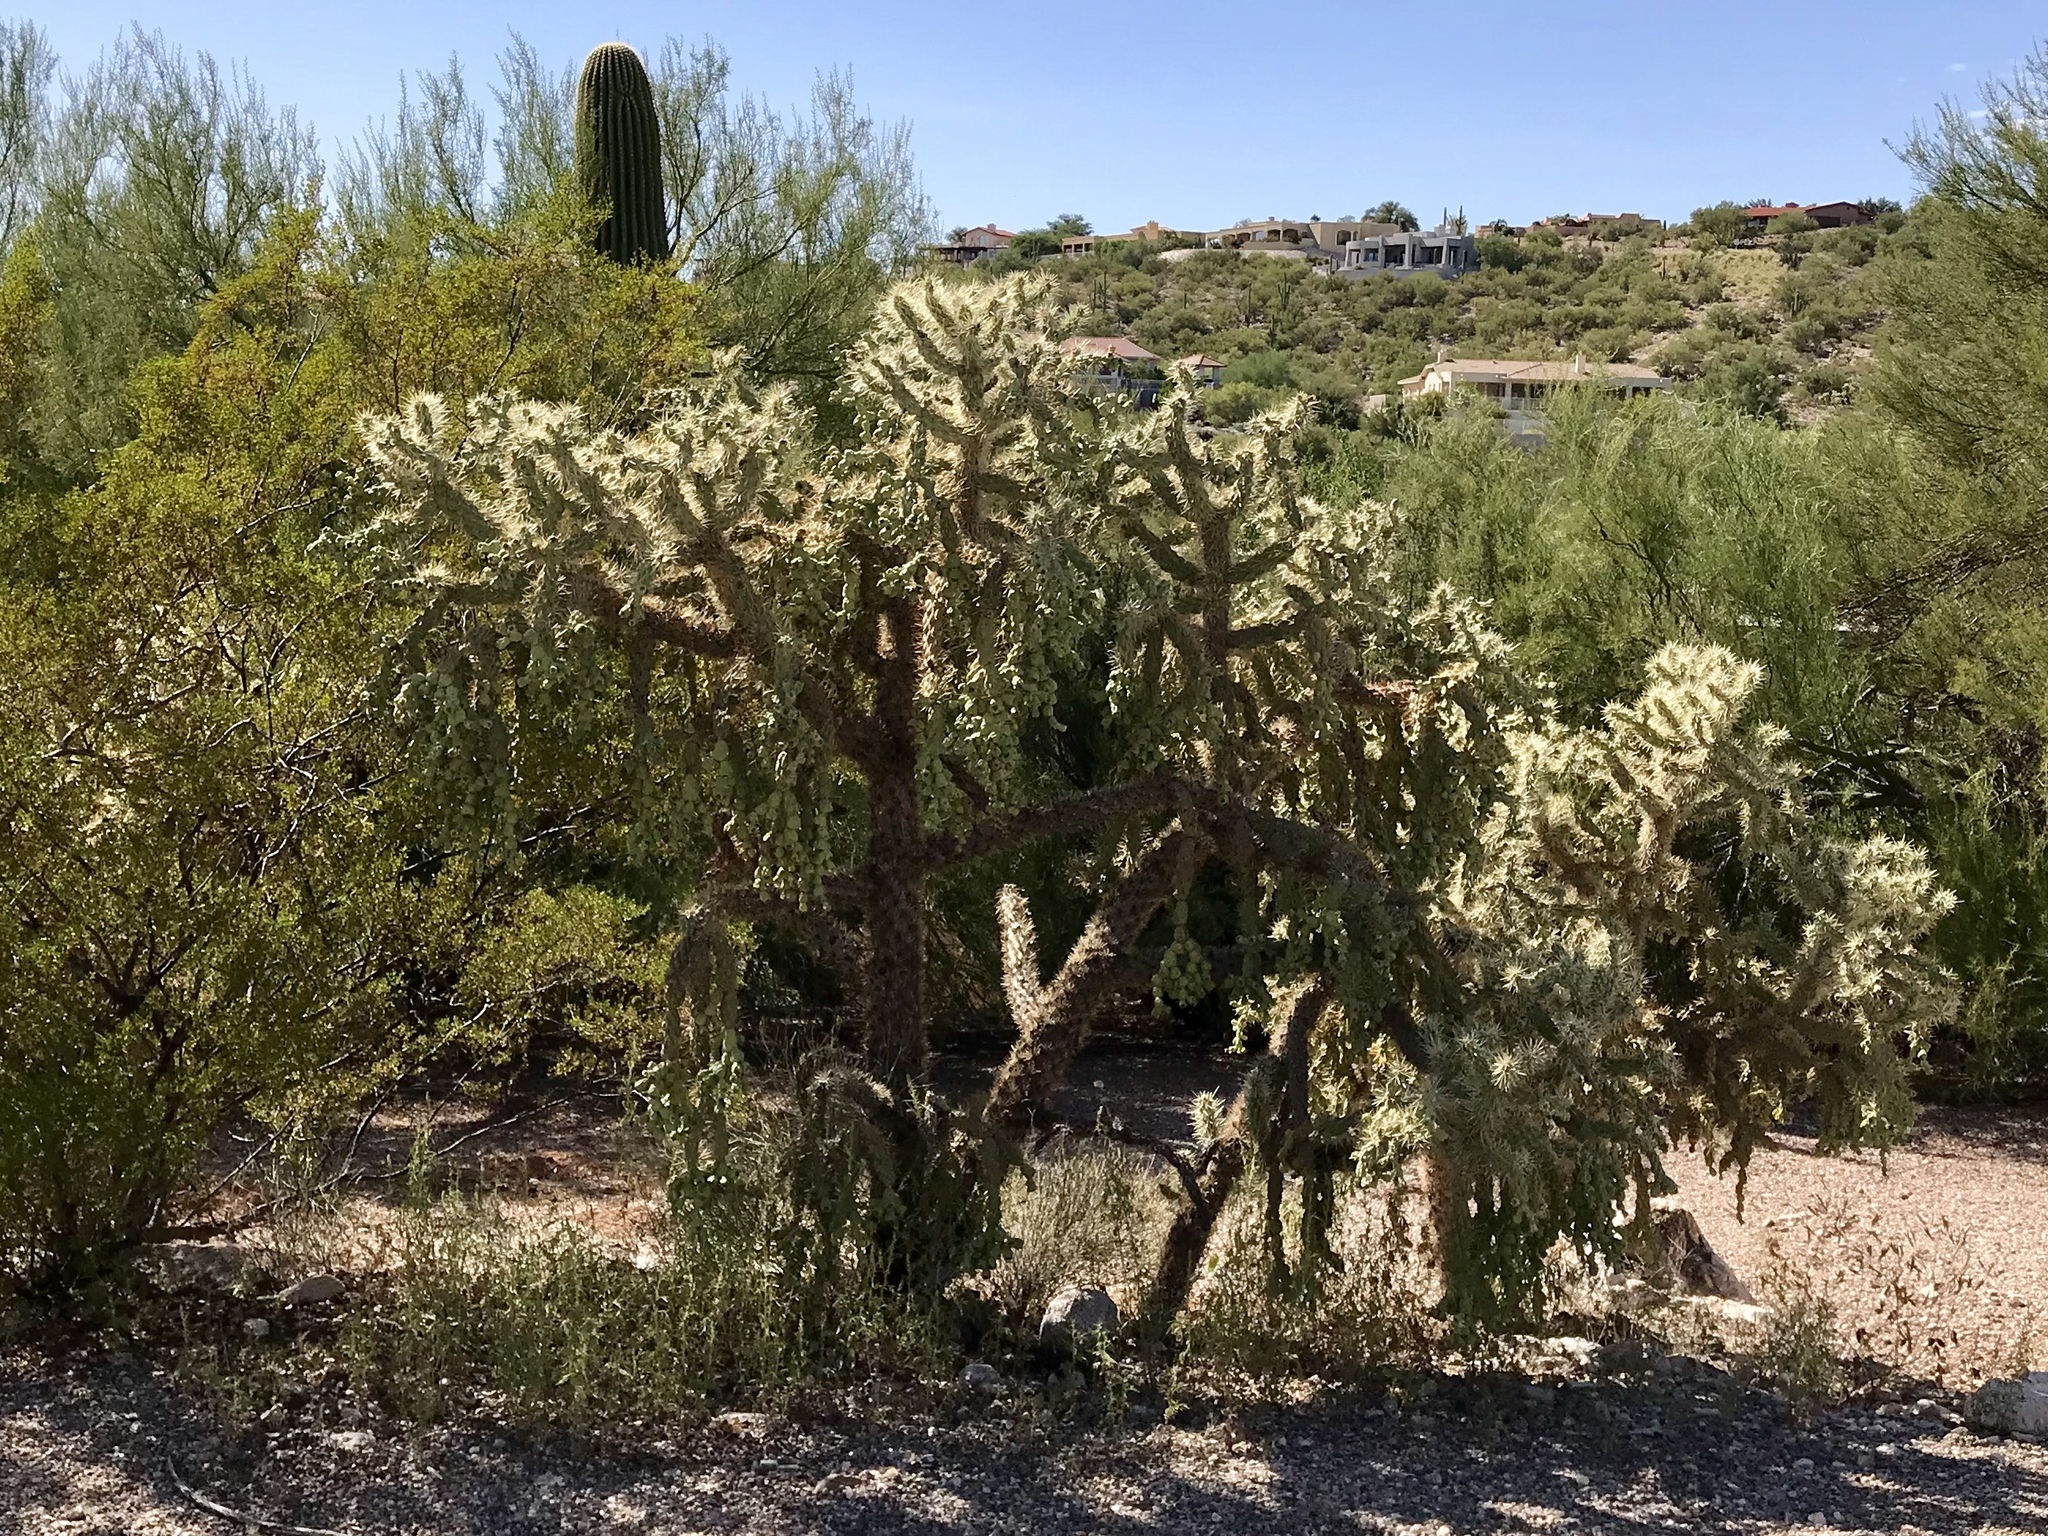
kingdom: Plantae
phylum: Tracheophyta
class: Magnoliopsida
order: Caryophyllales
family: Cactaceae
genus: Cylindropuntia
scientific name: Cylindropuntia fulgida
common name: Jumping cholla
